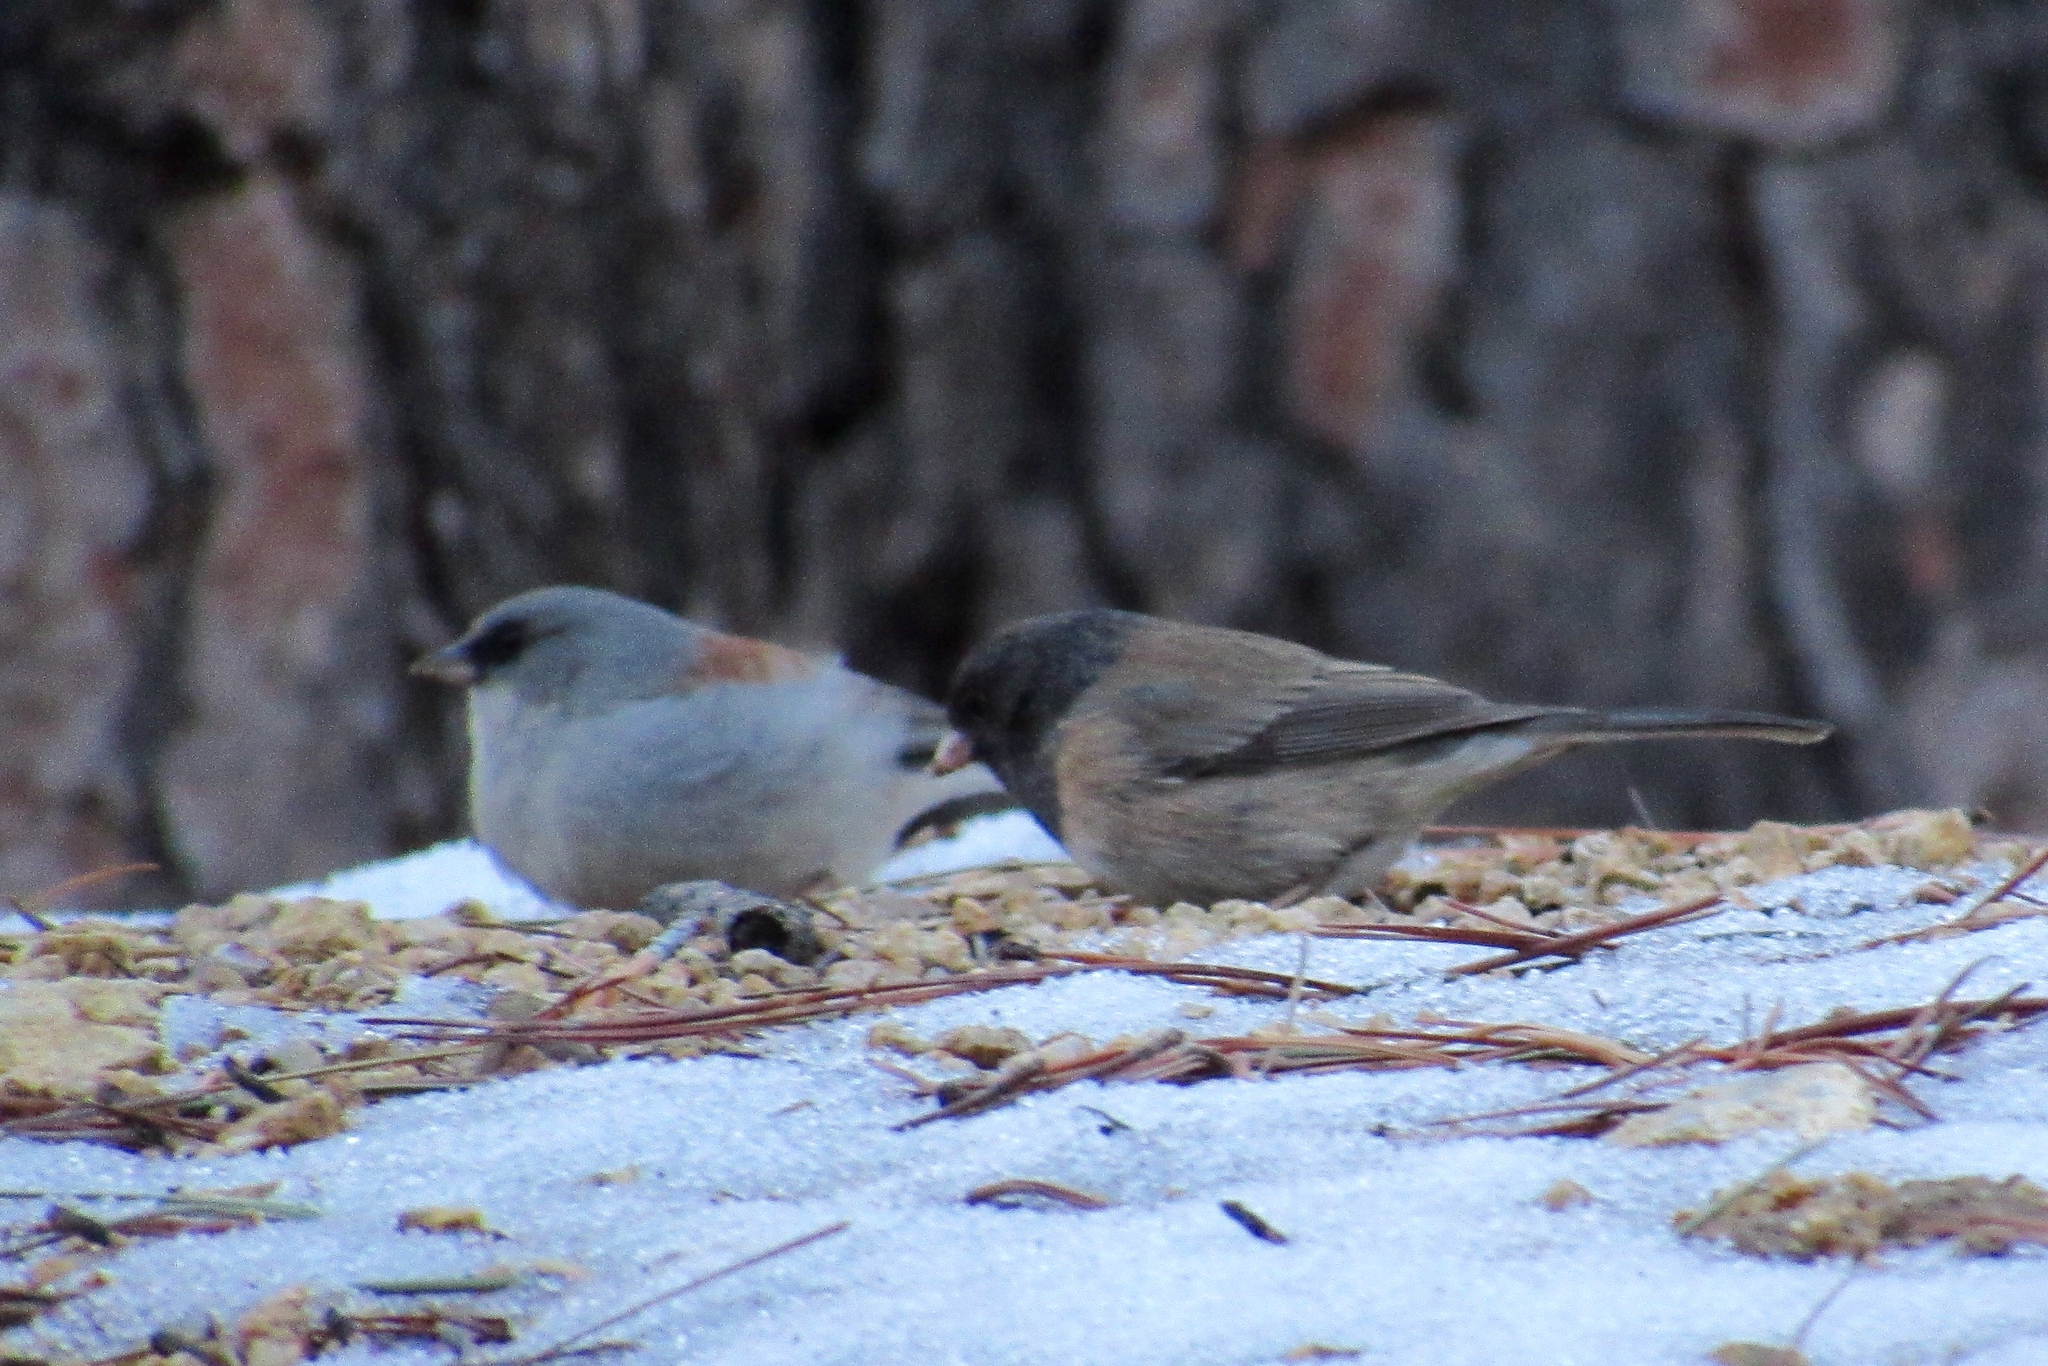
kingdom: Animalia
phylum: Chordata
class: Aves
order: Passeriformes
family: Passerellidae
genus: Junco
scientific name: Junco hyemalis
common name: Dark-eyed junco
